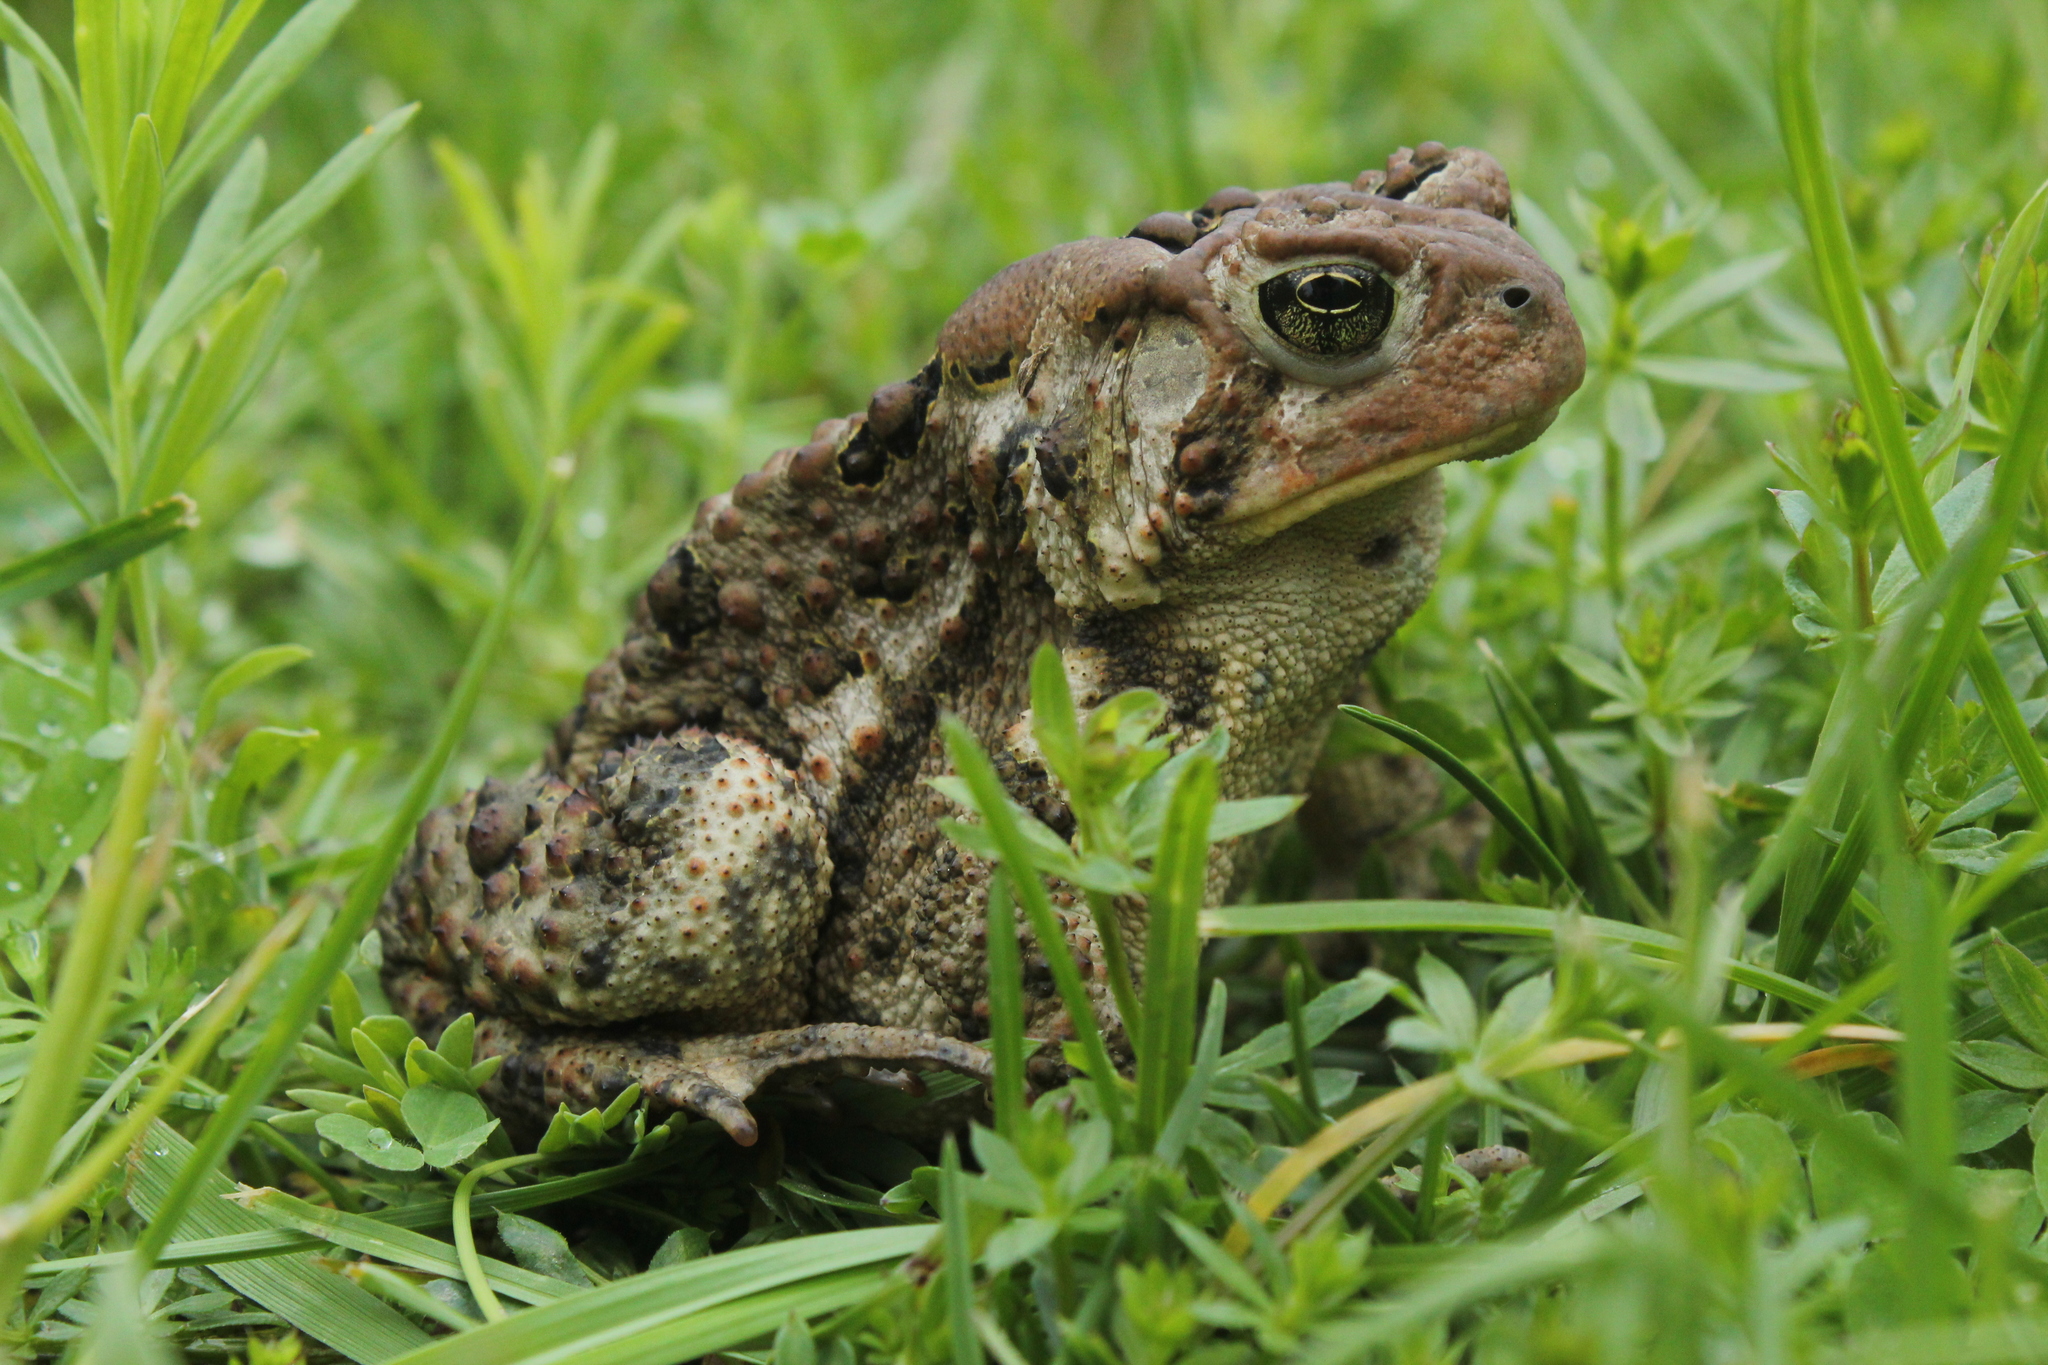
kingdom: Animalia
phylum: Chordata
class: Amphibia
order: Anura
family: Bufonidae
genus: Anaxyrus
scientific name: Anaxyrus americanus
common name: American toad
